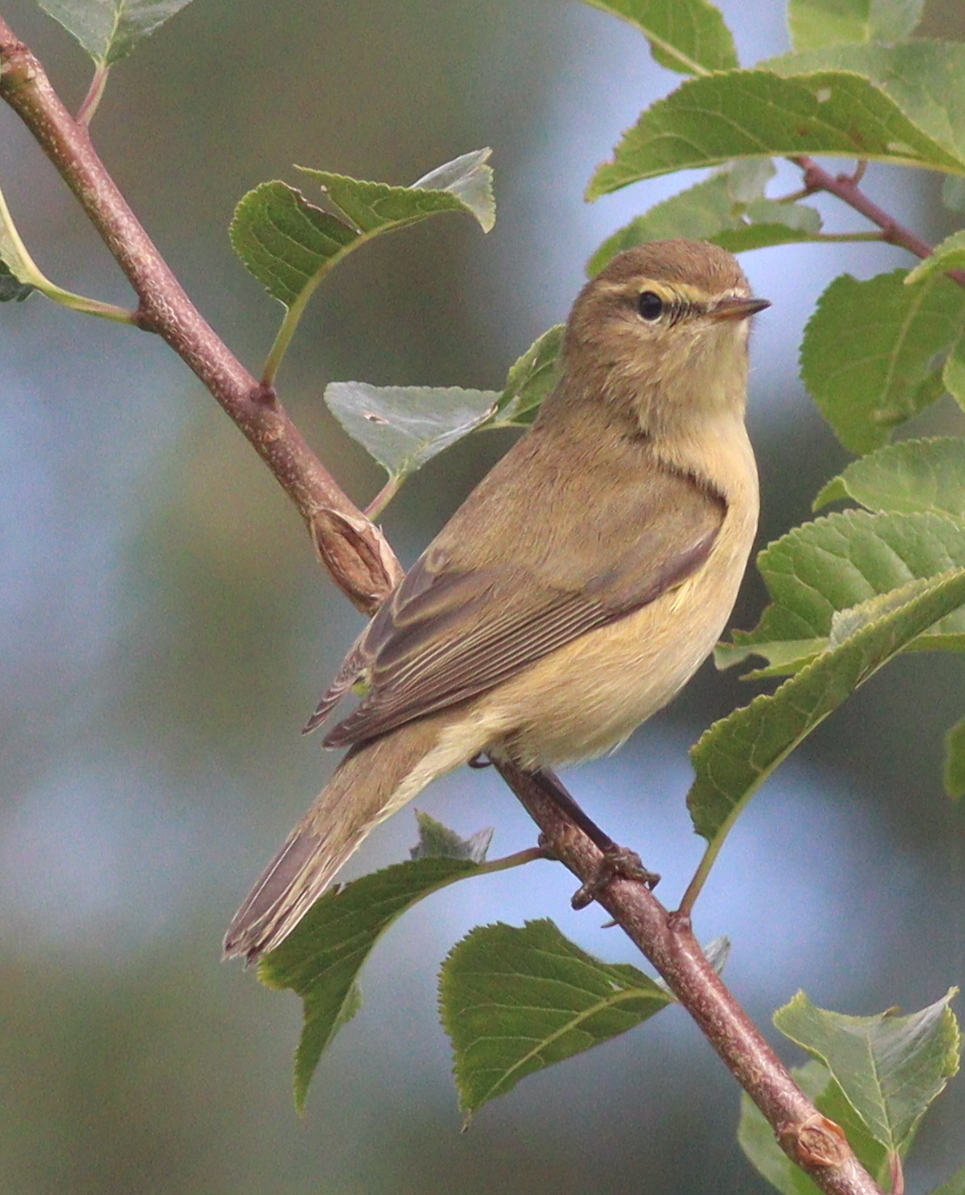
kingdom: Animalia
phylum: Chordata
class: Aves
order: Passeriformes
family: Phylloscopidae
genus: Phylloscopus
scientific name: Phylloscopus collybita
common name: Common chiffchaff
